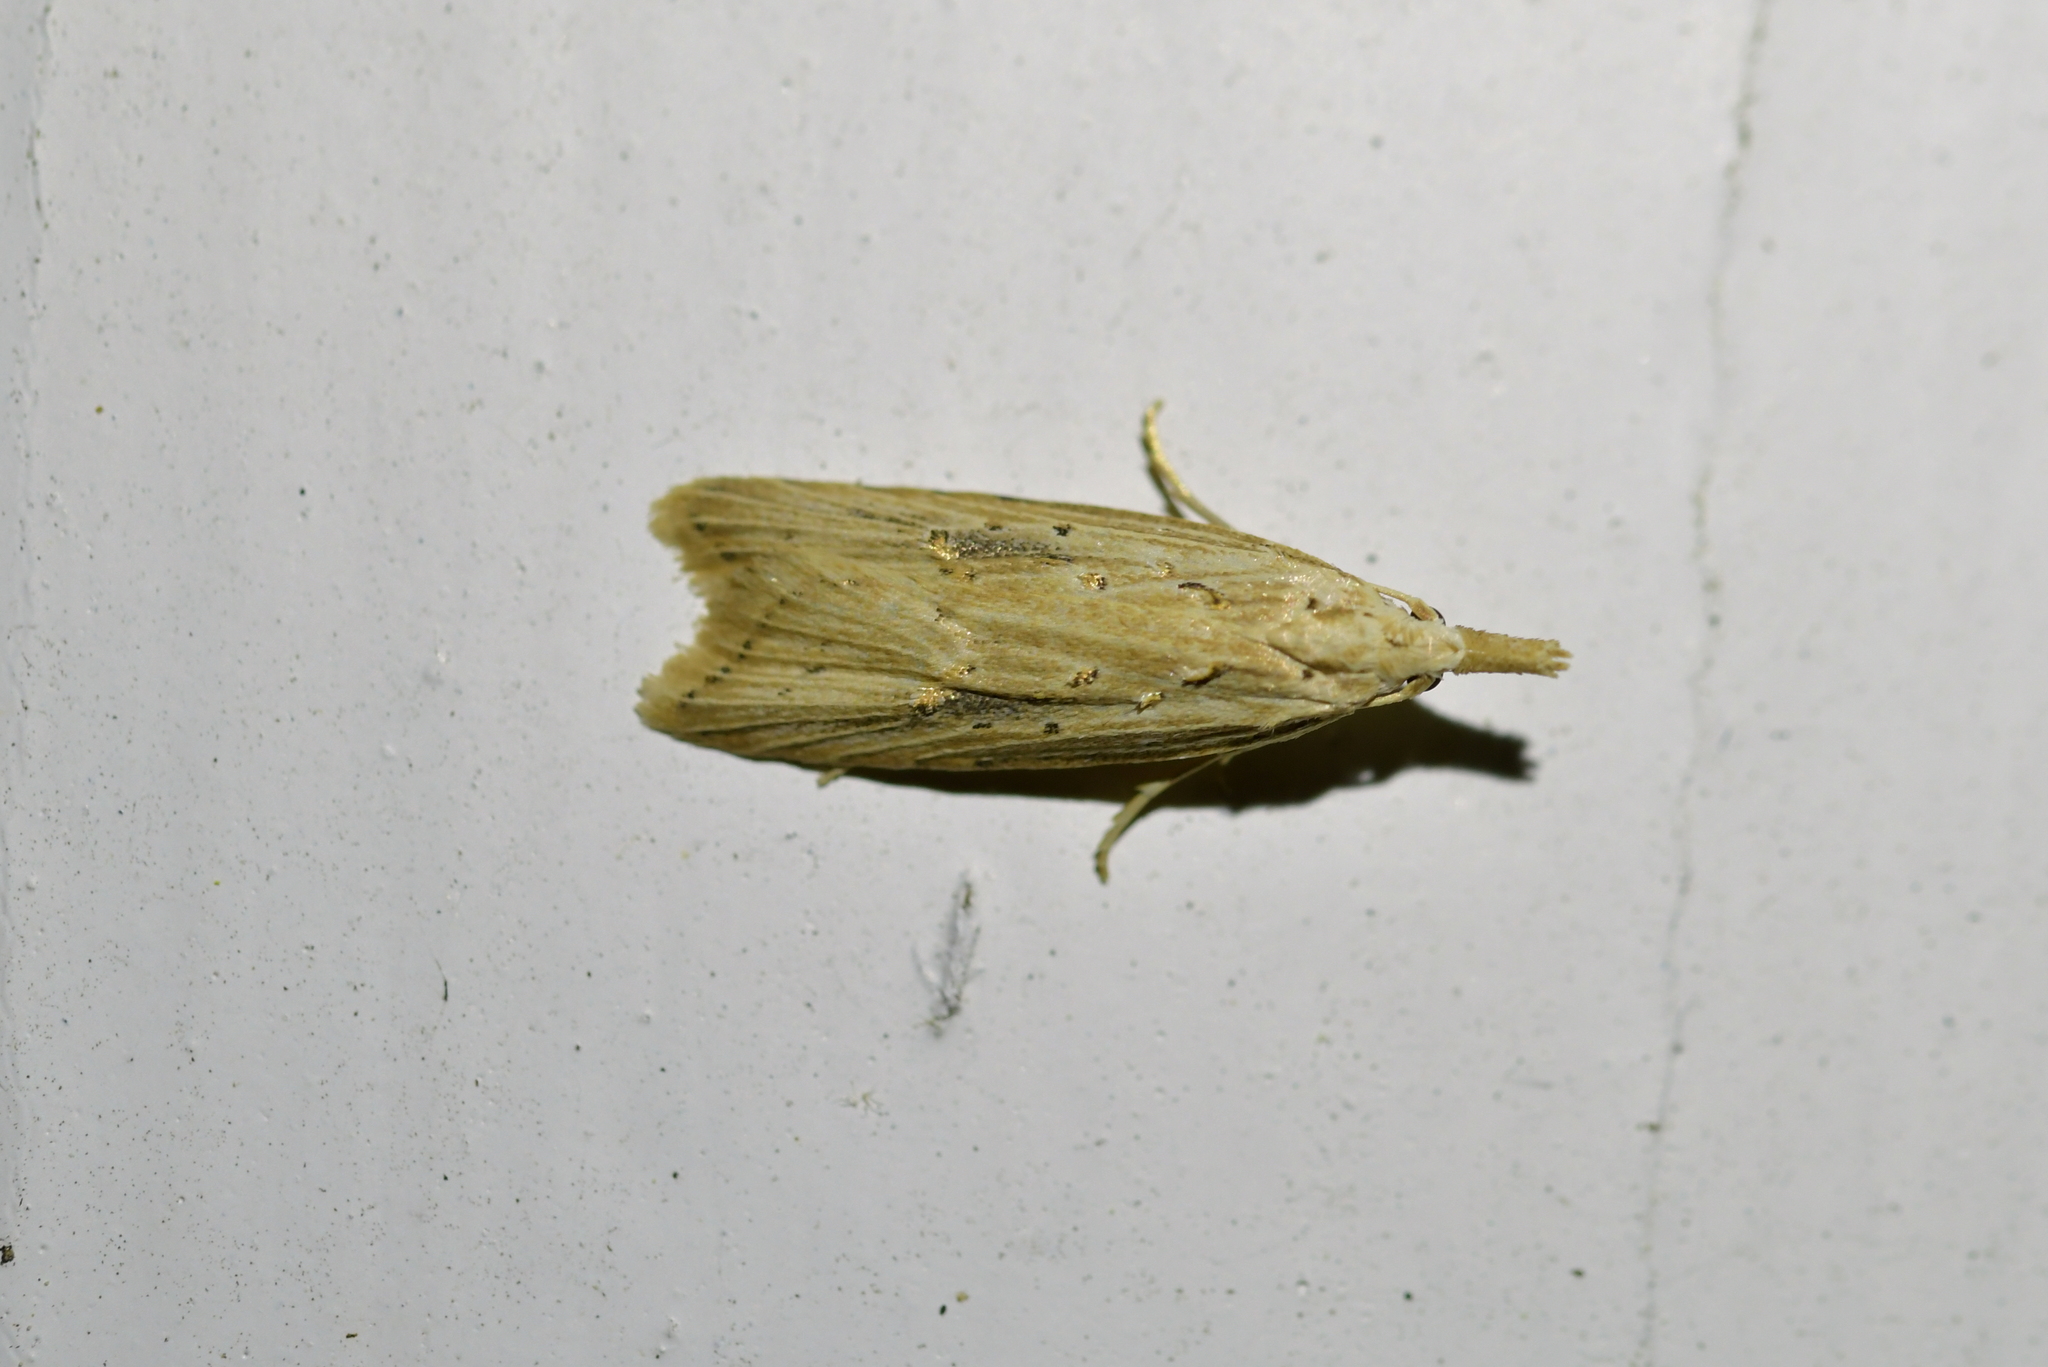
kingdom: Animalia
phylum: Arthropoda
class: Insecta
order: Lepidoptera
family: Carposinidae
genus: Carposina
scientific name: Carposina Heterocrossa exochana
